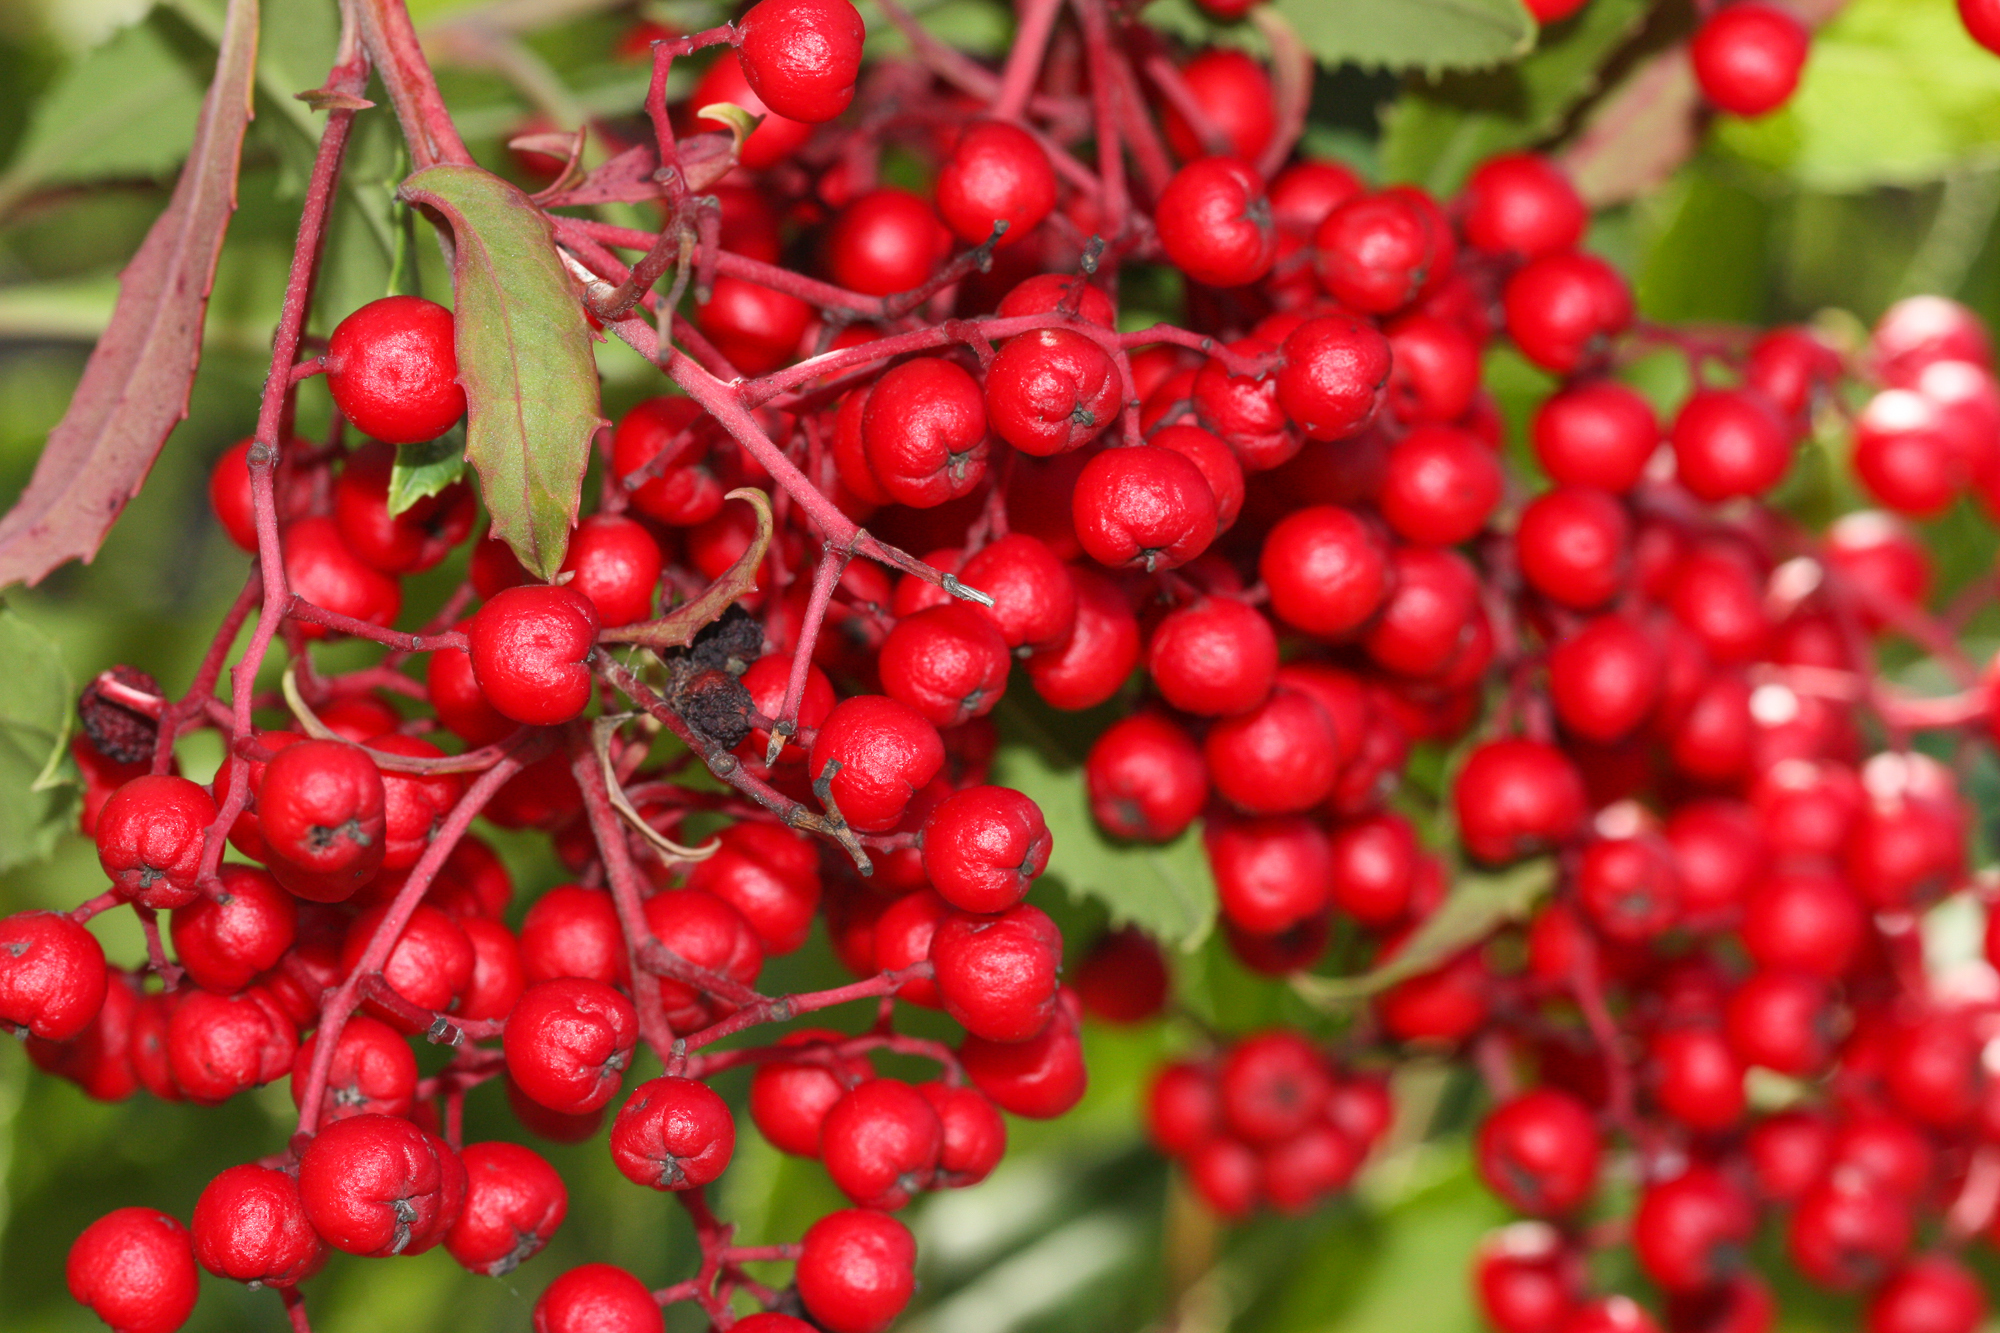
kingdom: Plantae
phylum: Tracheophyta
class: Magnoliopsida
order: Rosales
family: Rosaceae
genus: Heteromeles
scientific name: Heteromeles arbutifolia
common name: California-holly
